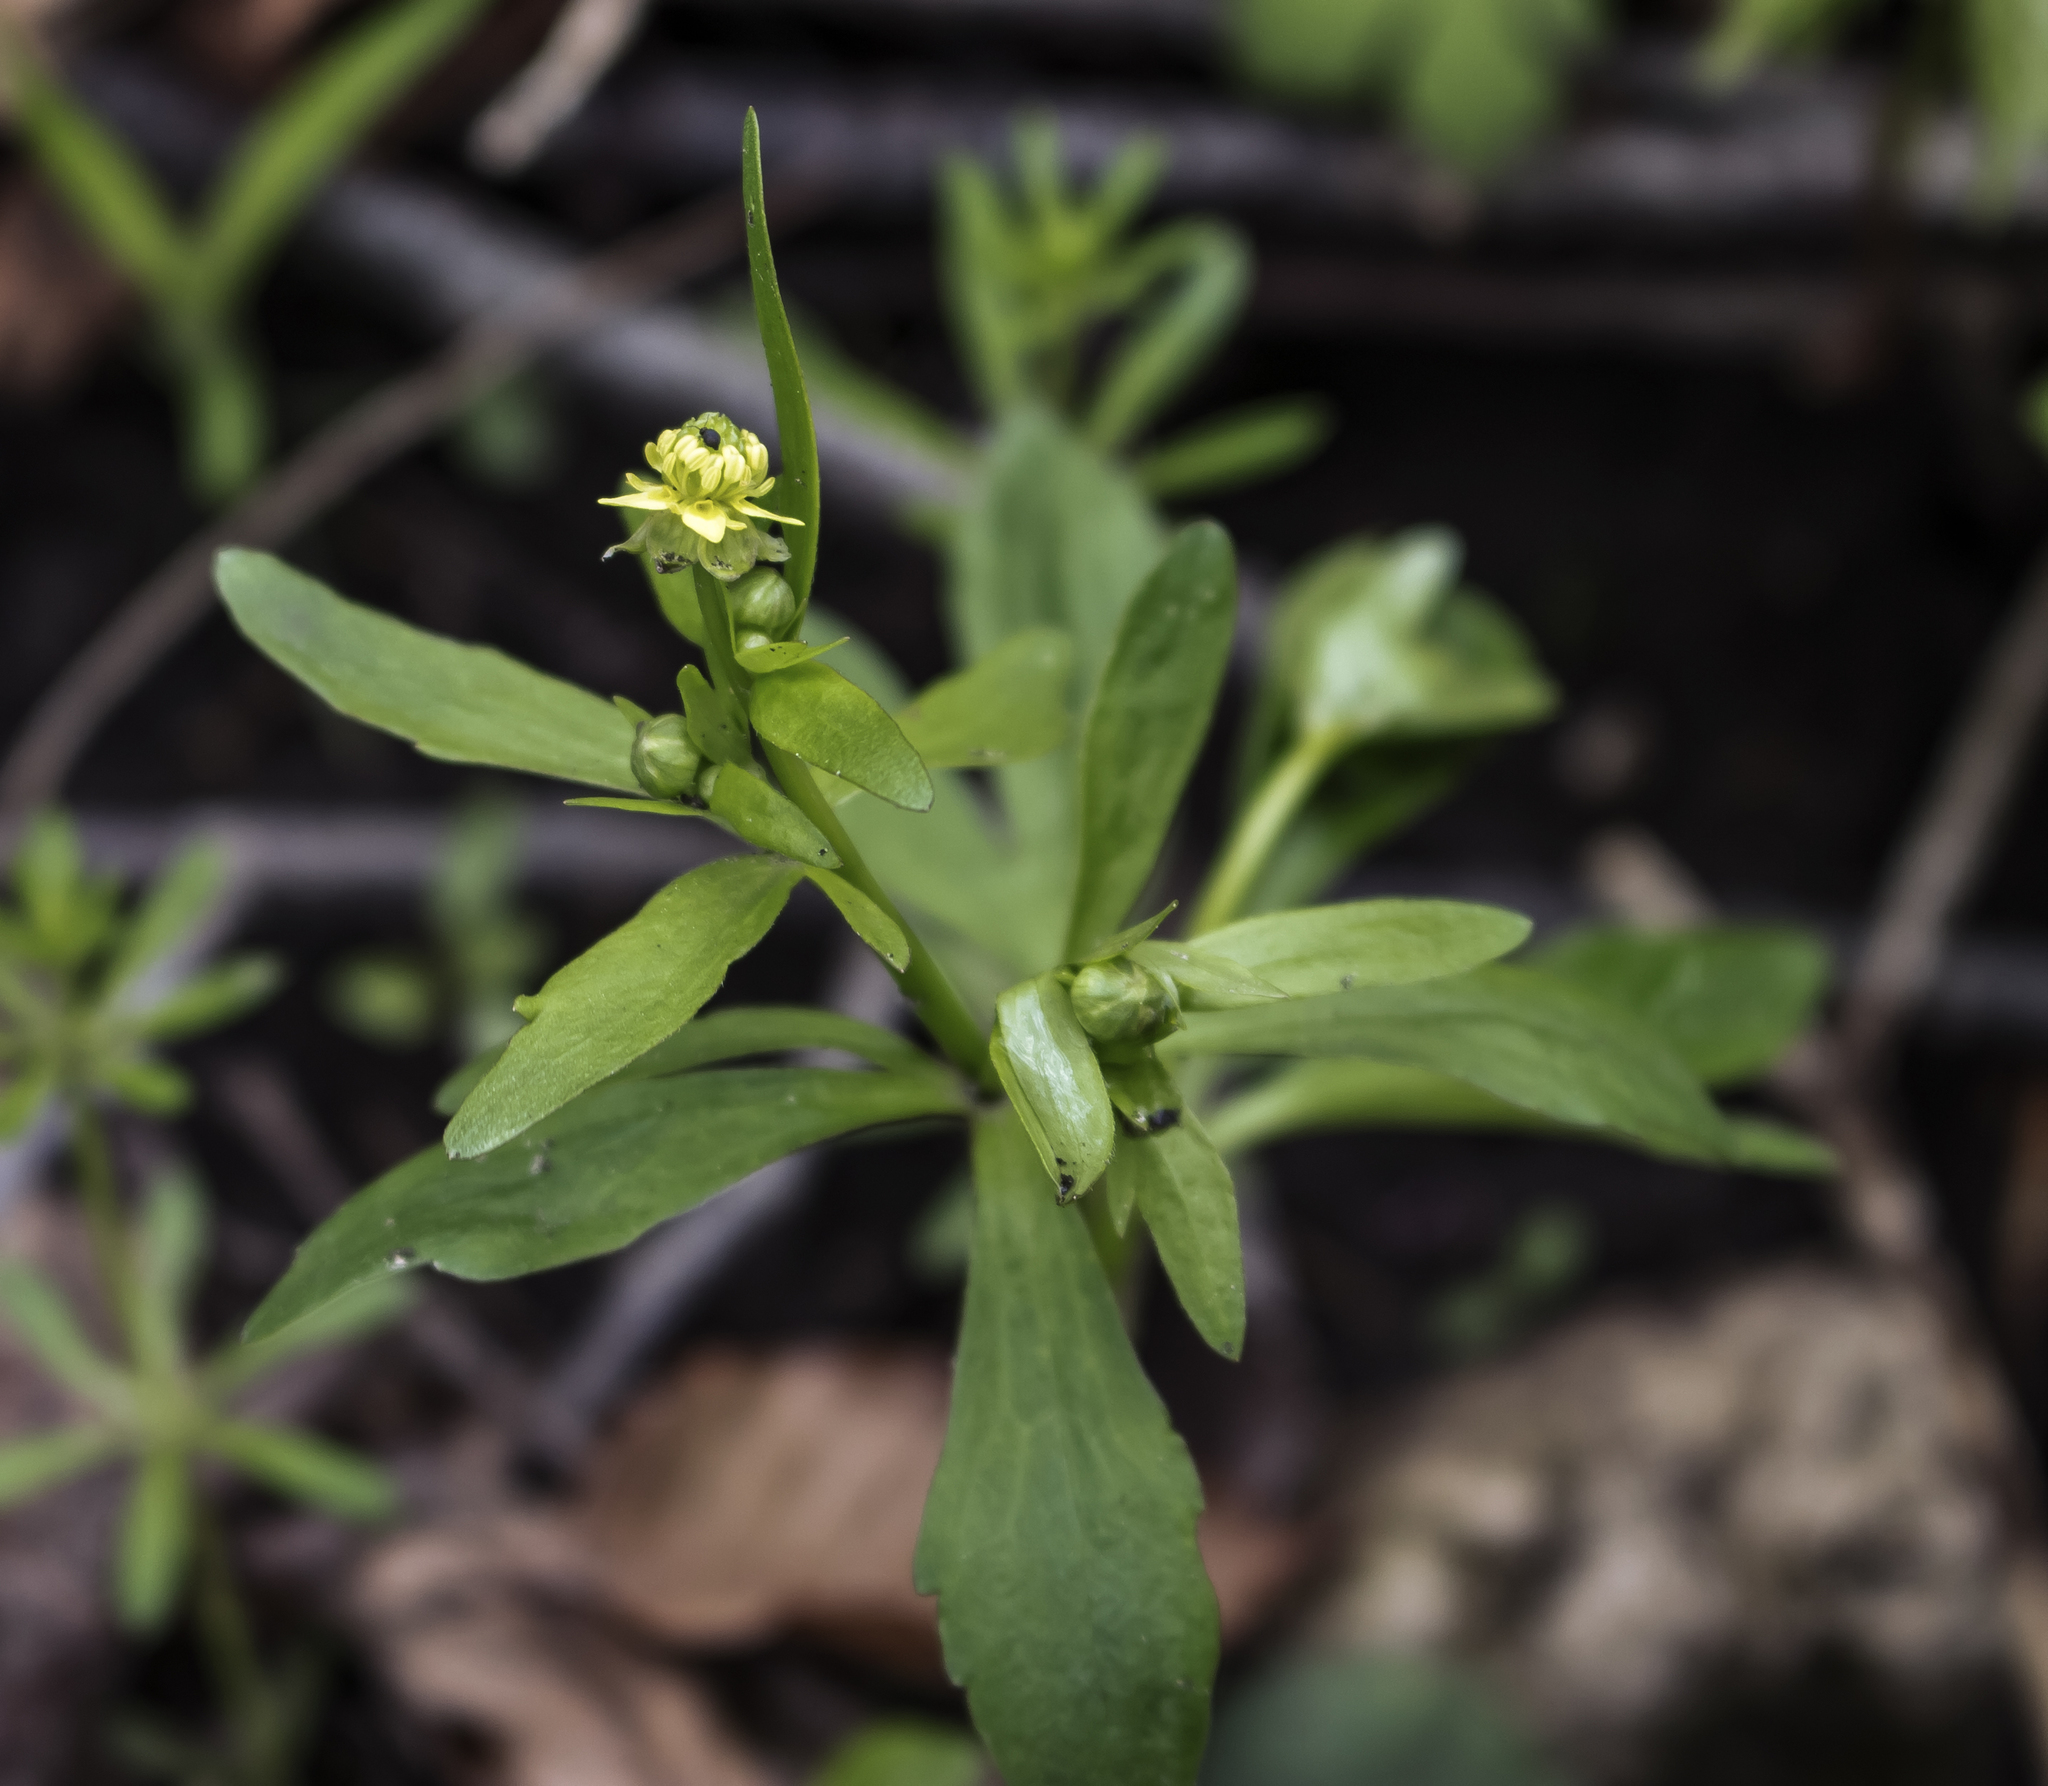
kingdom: Plantae
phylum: Tracheophyta
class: Magnoliopsida
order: Ranunculales
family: Ranunculaceae
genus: Ranunculus
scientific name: Ranunculus abortivus
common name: Early wood buttercup
